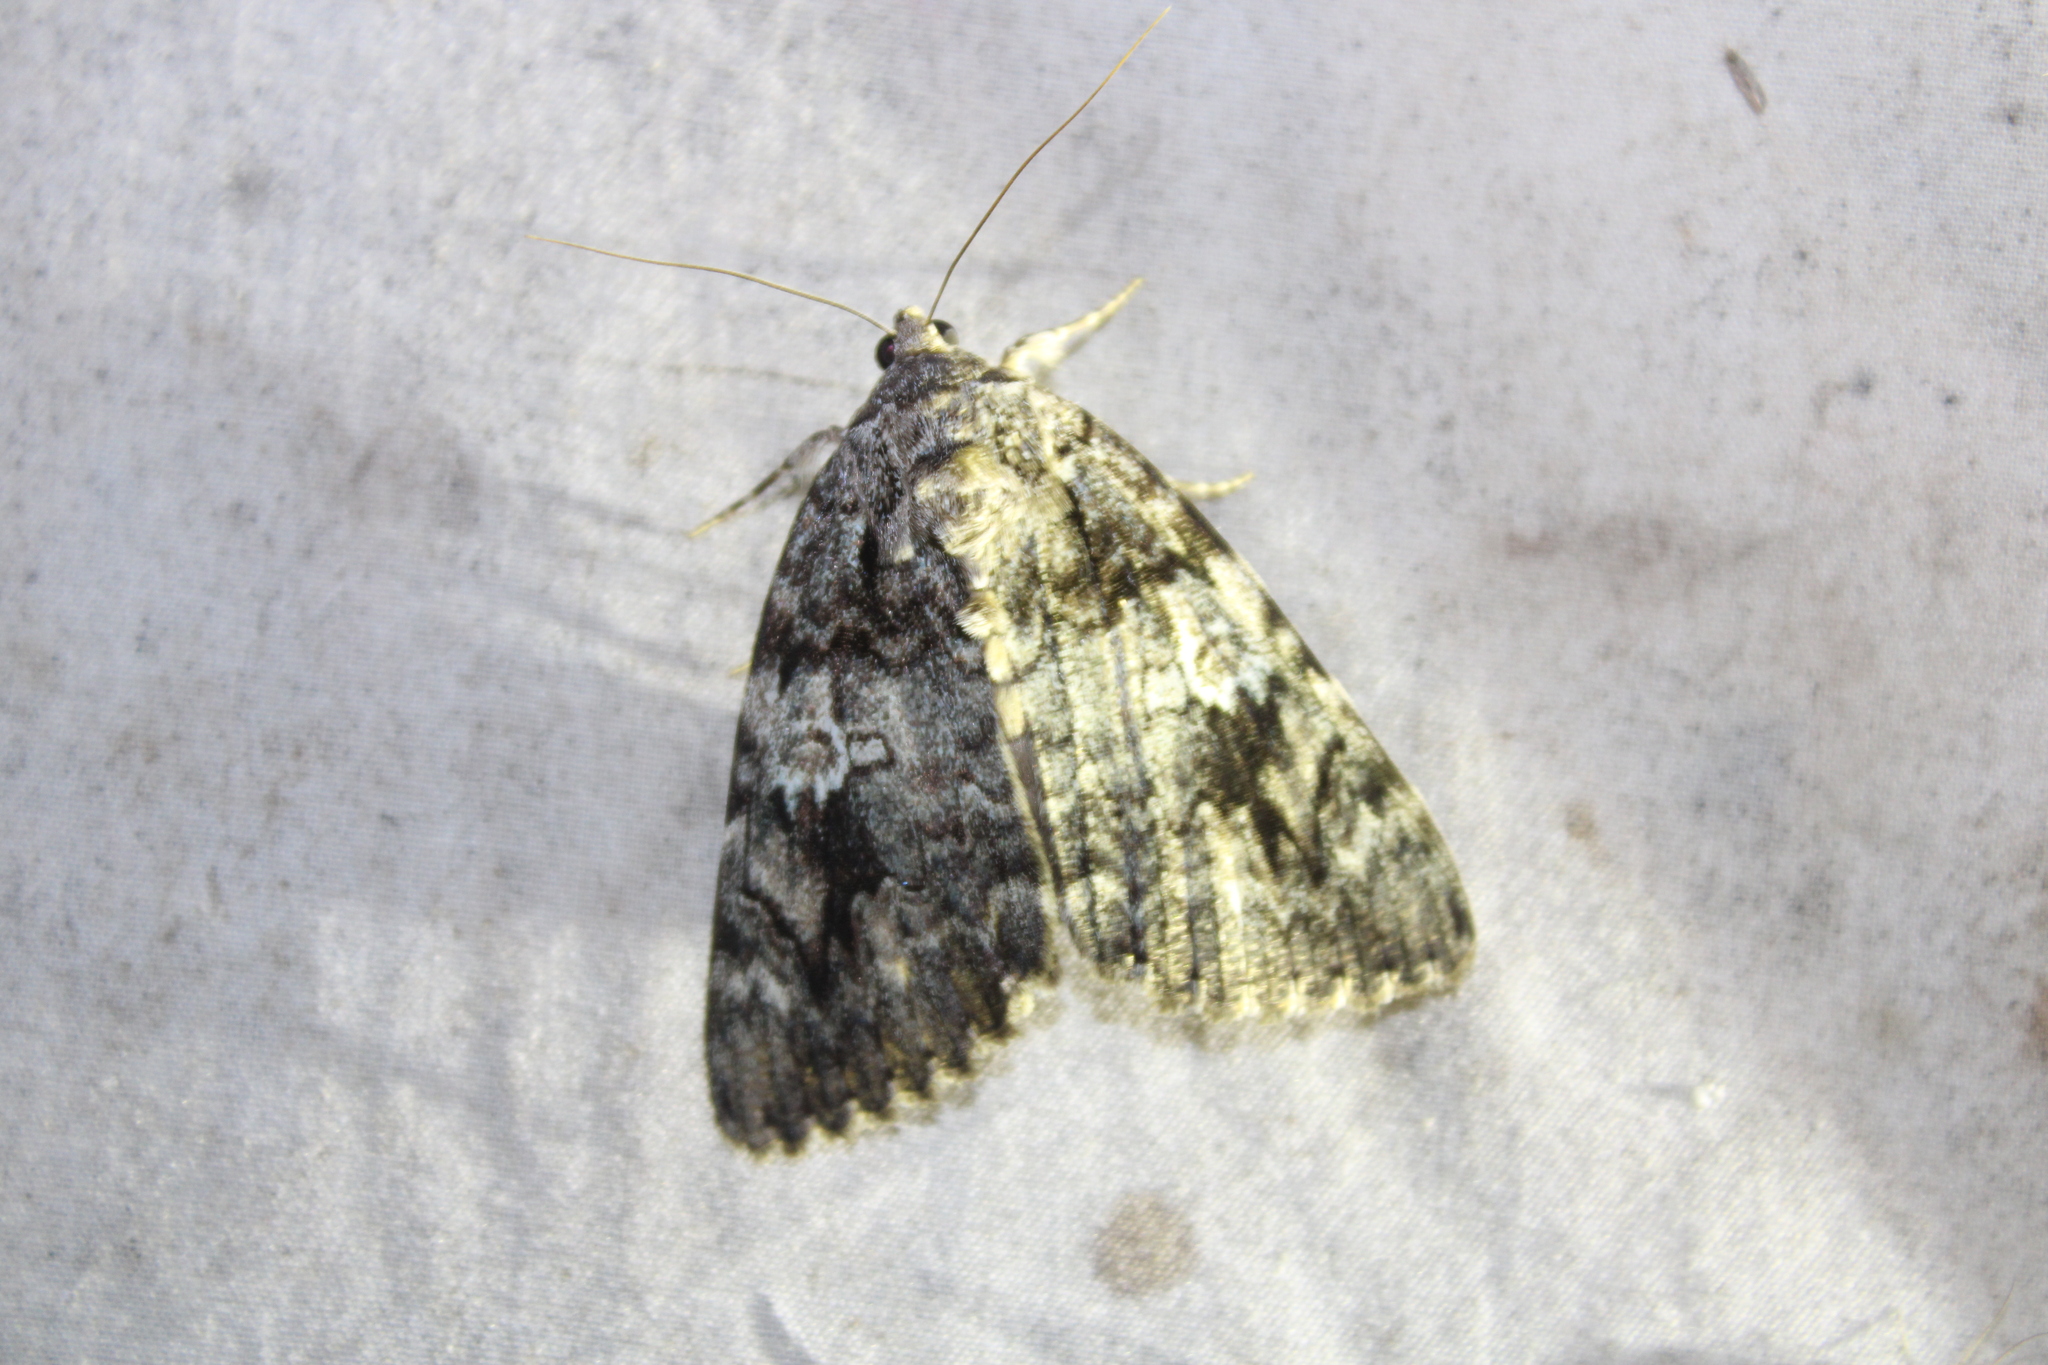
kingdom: Animalia
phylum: Arthropoda
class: Insecta
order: Lepidoptera
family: Erebidae
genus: Catocala
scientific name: Catocala ilia
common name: Ilia underwing
